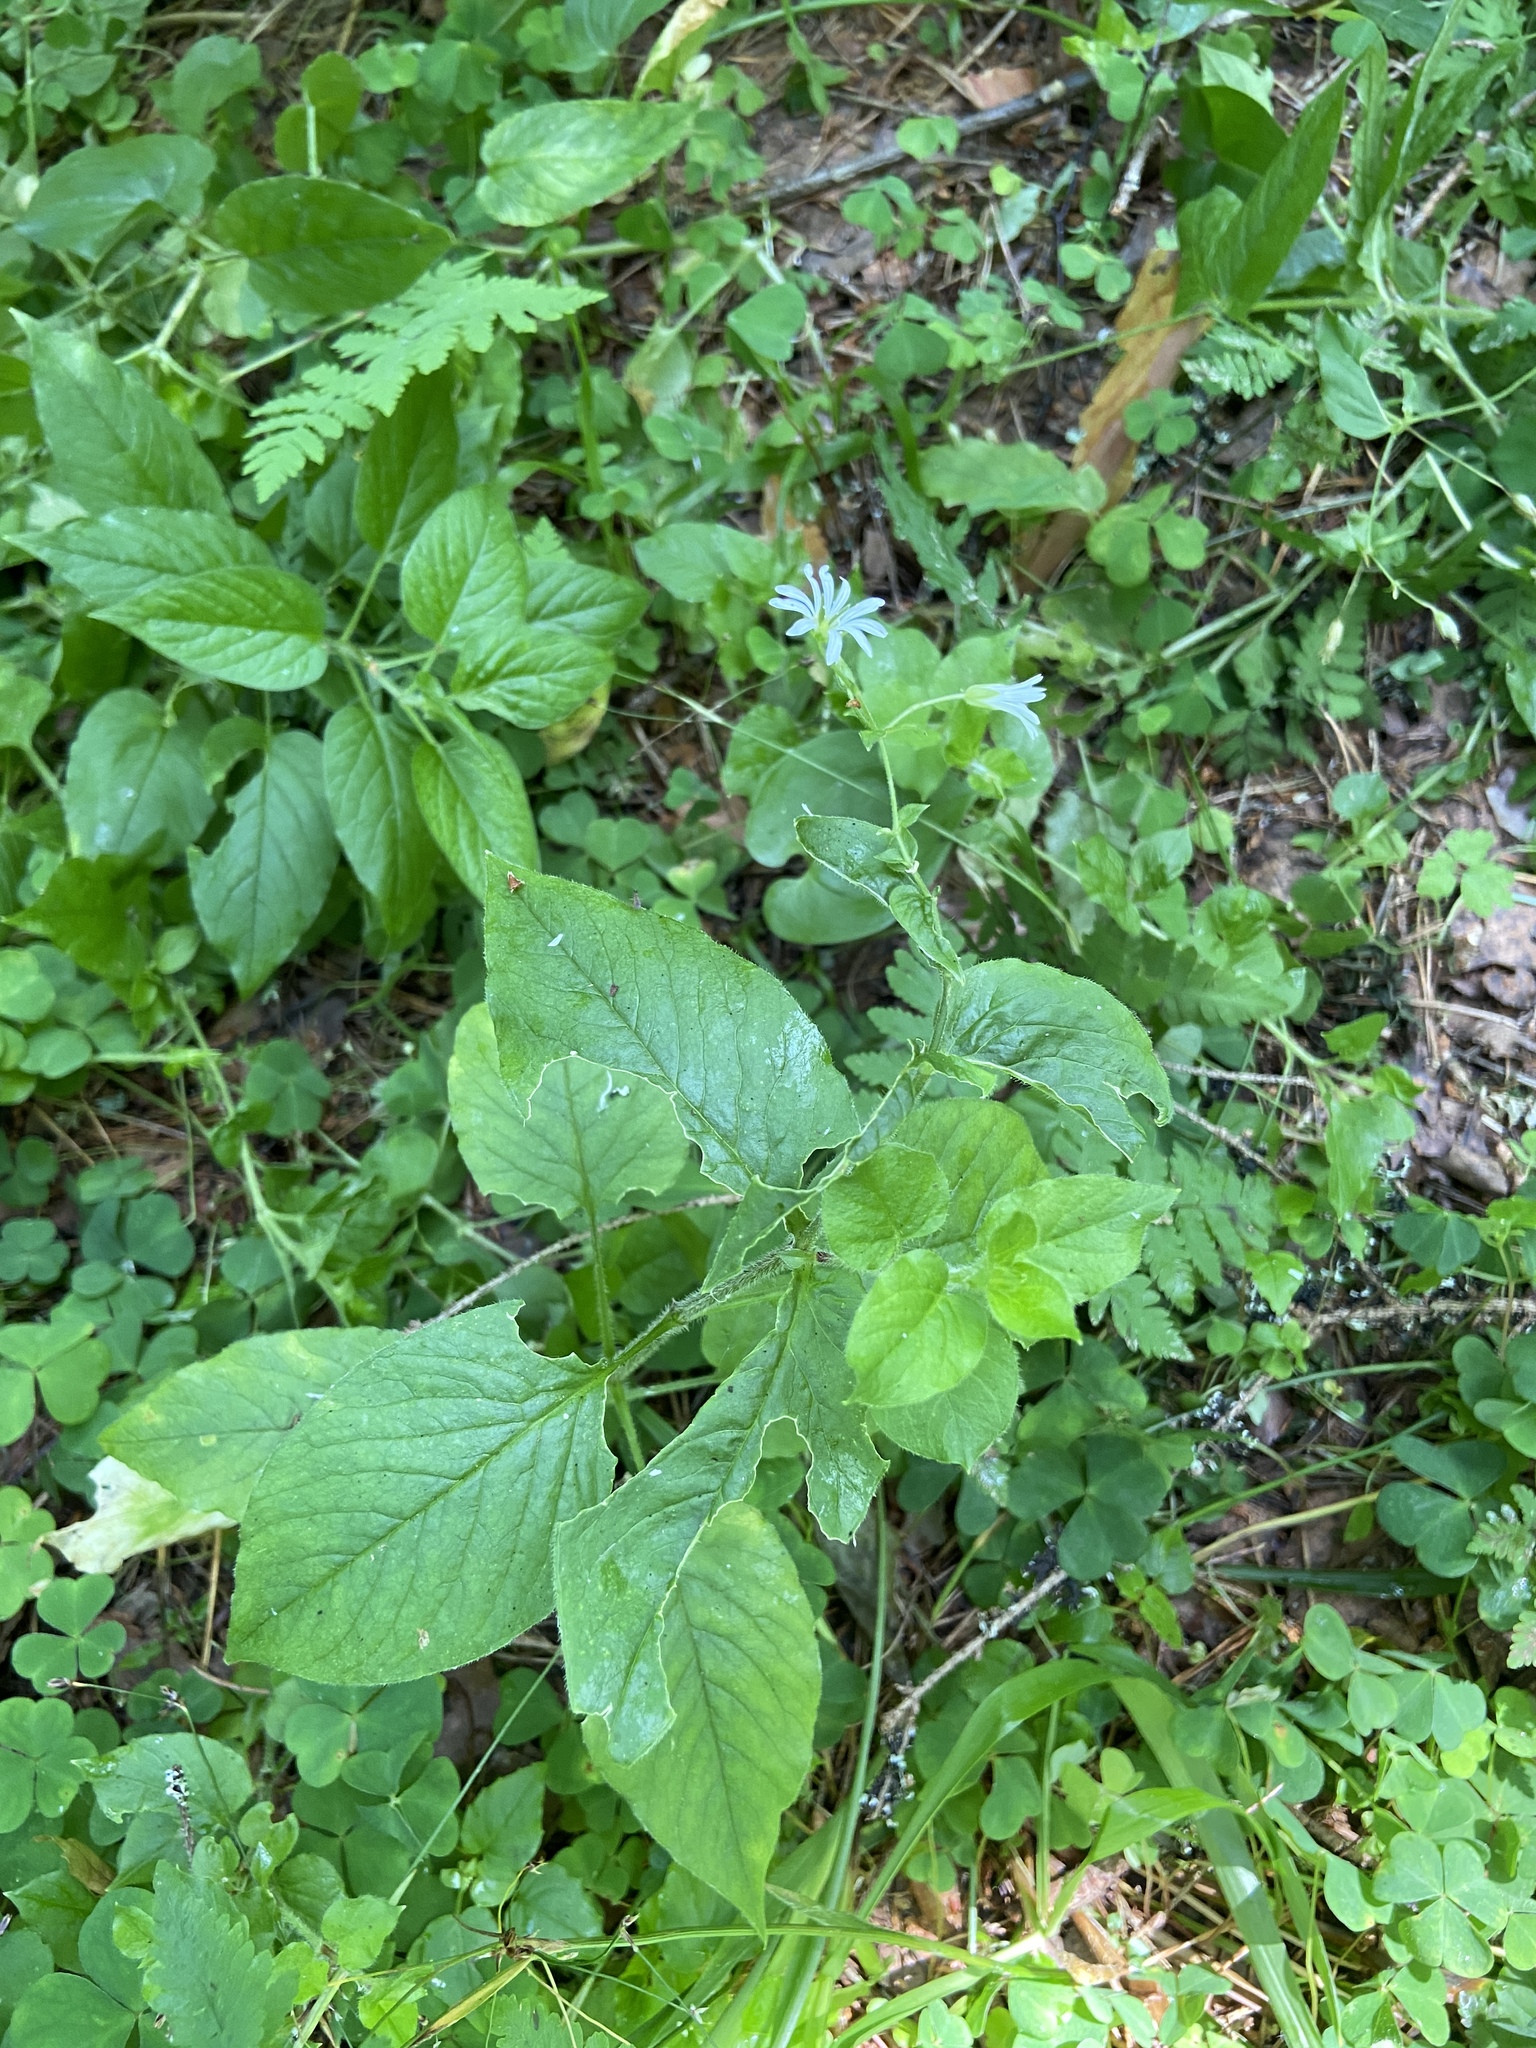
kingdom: Plantae
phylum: Tracheophyta
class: Magnoliopsida
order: Caryophyllales
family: Caryophyllaceae
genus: Stellaria
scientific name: Stellaria nemorum
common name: Wood stitchwort
